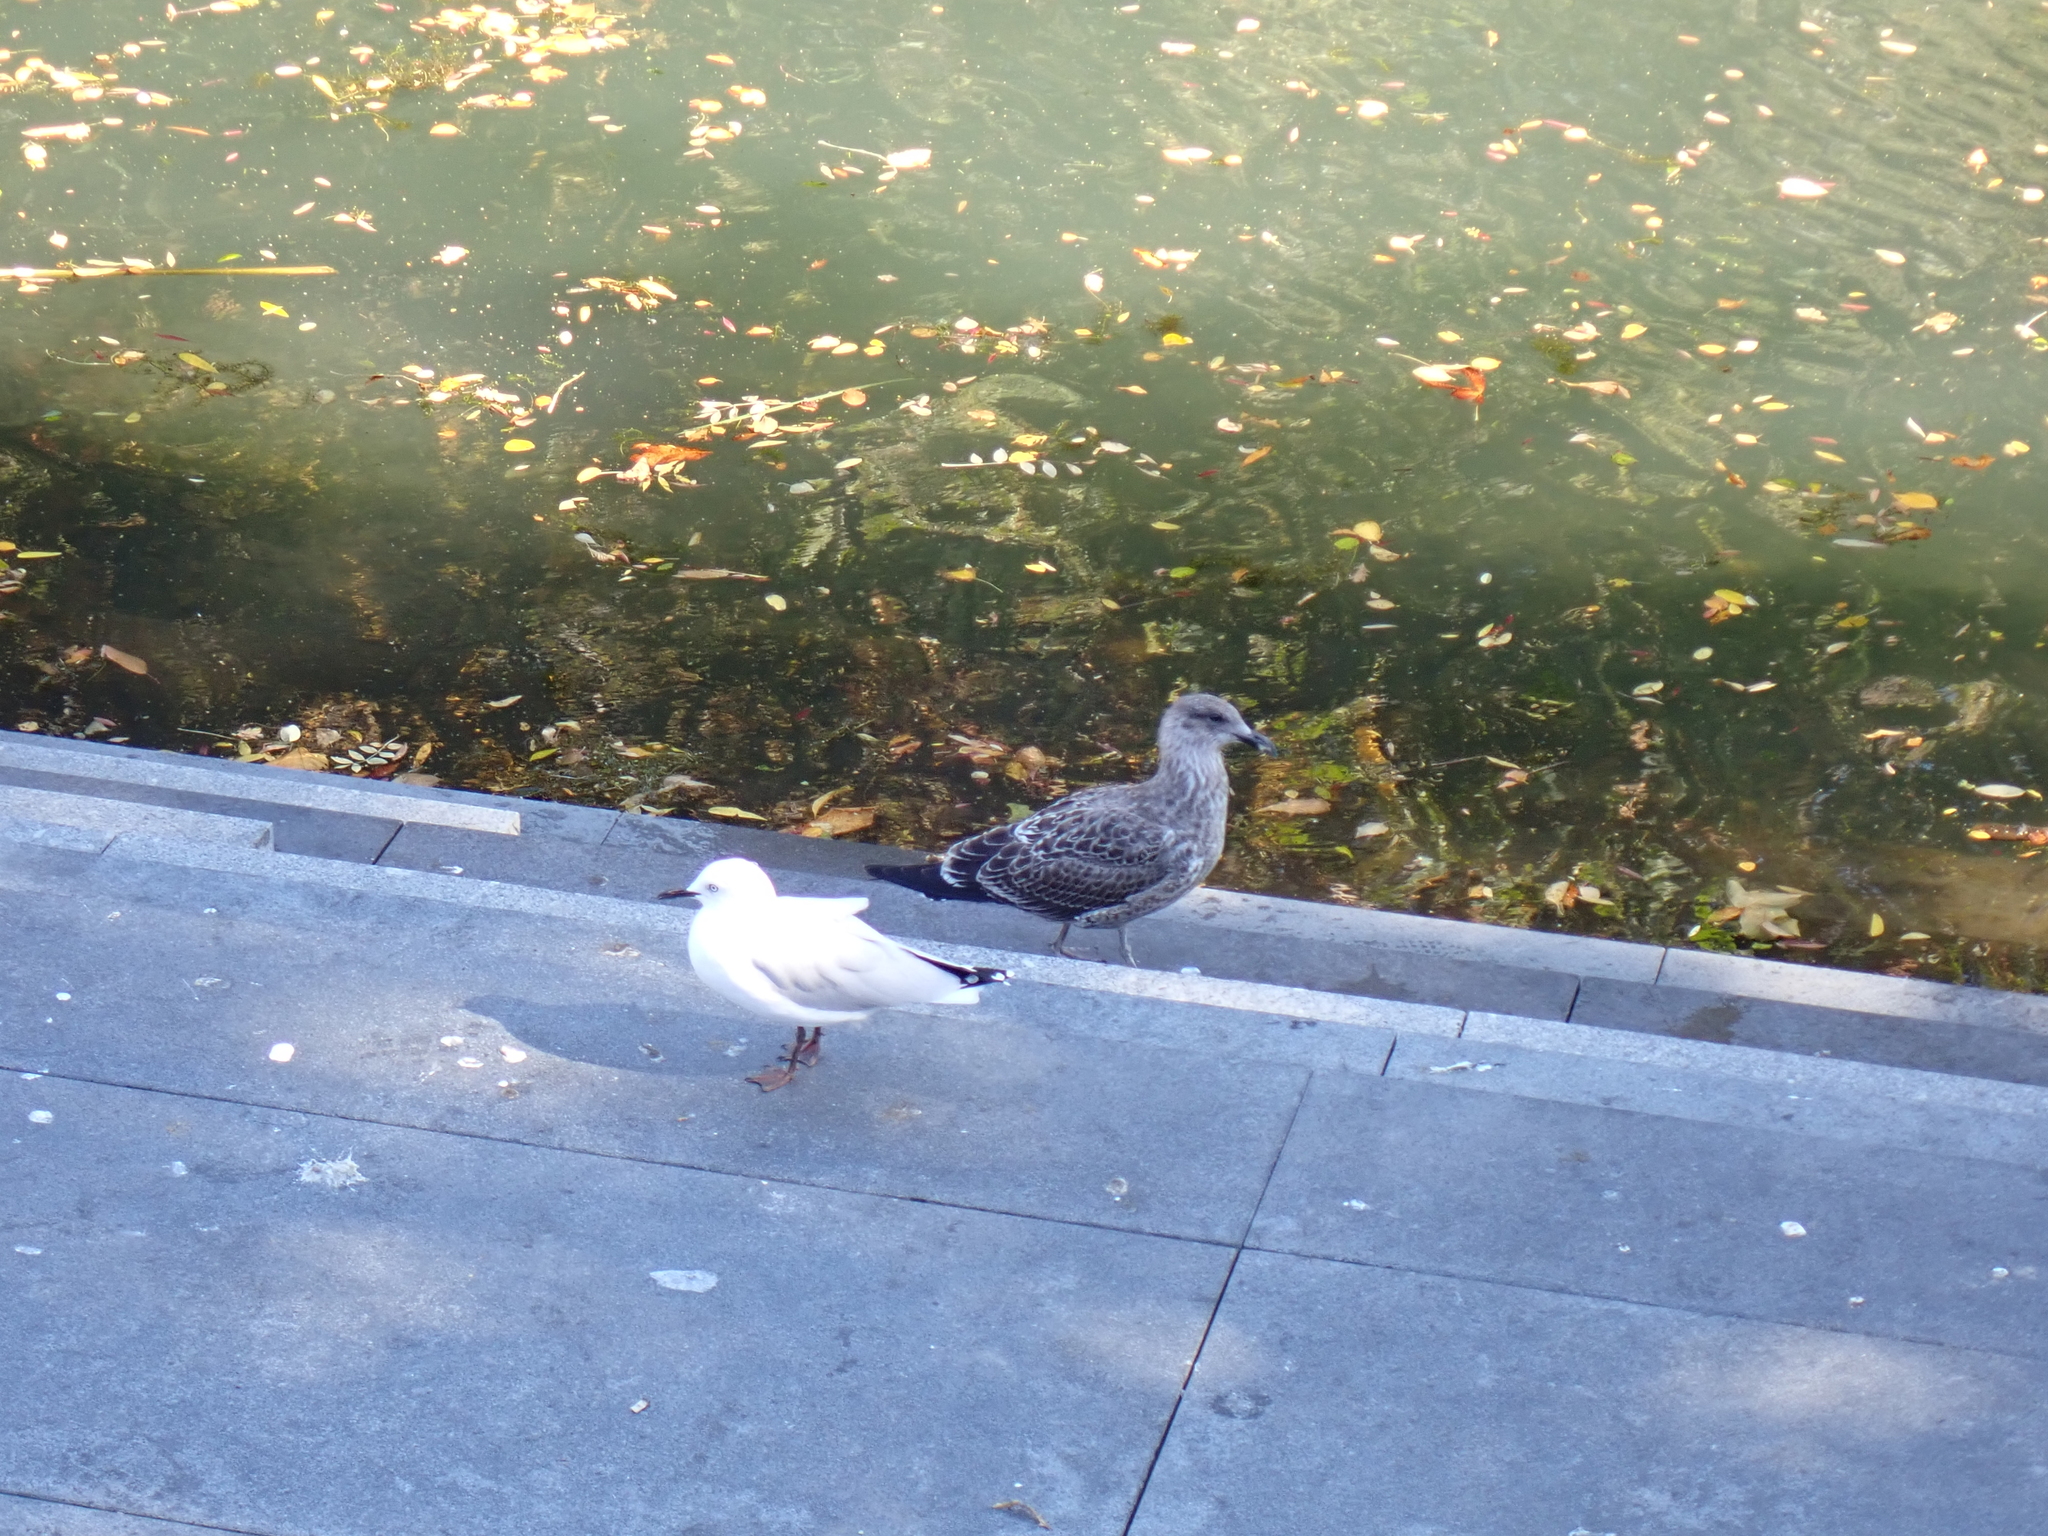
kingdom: Animalia
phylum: Chordata
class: Aves
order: Charadriiformes
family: Laridae
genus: Larus
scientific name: Larus dominicanus
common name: Kelp gull
